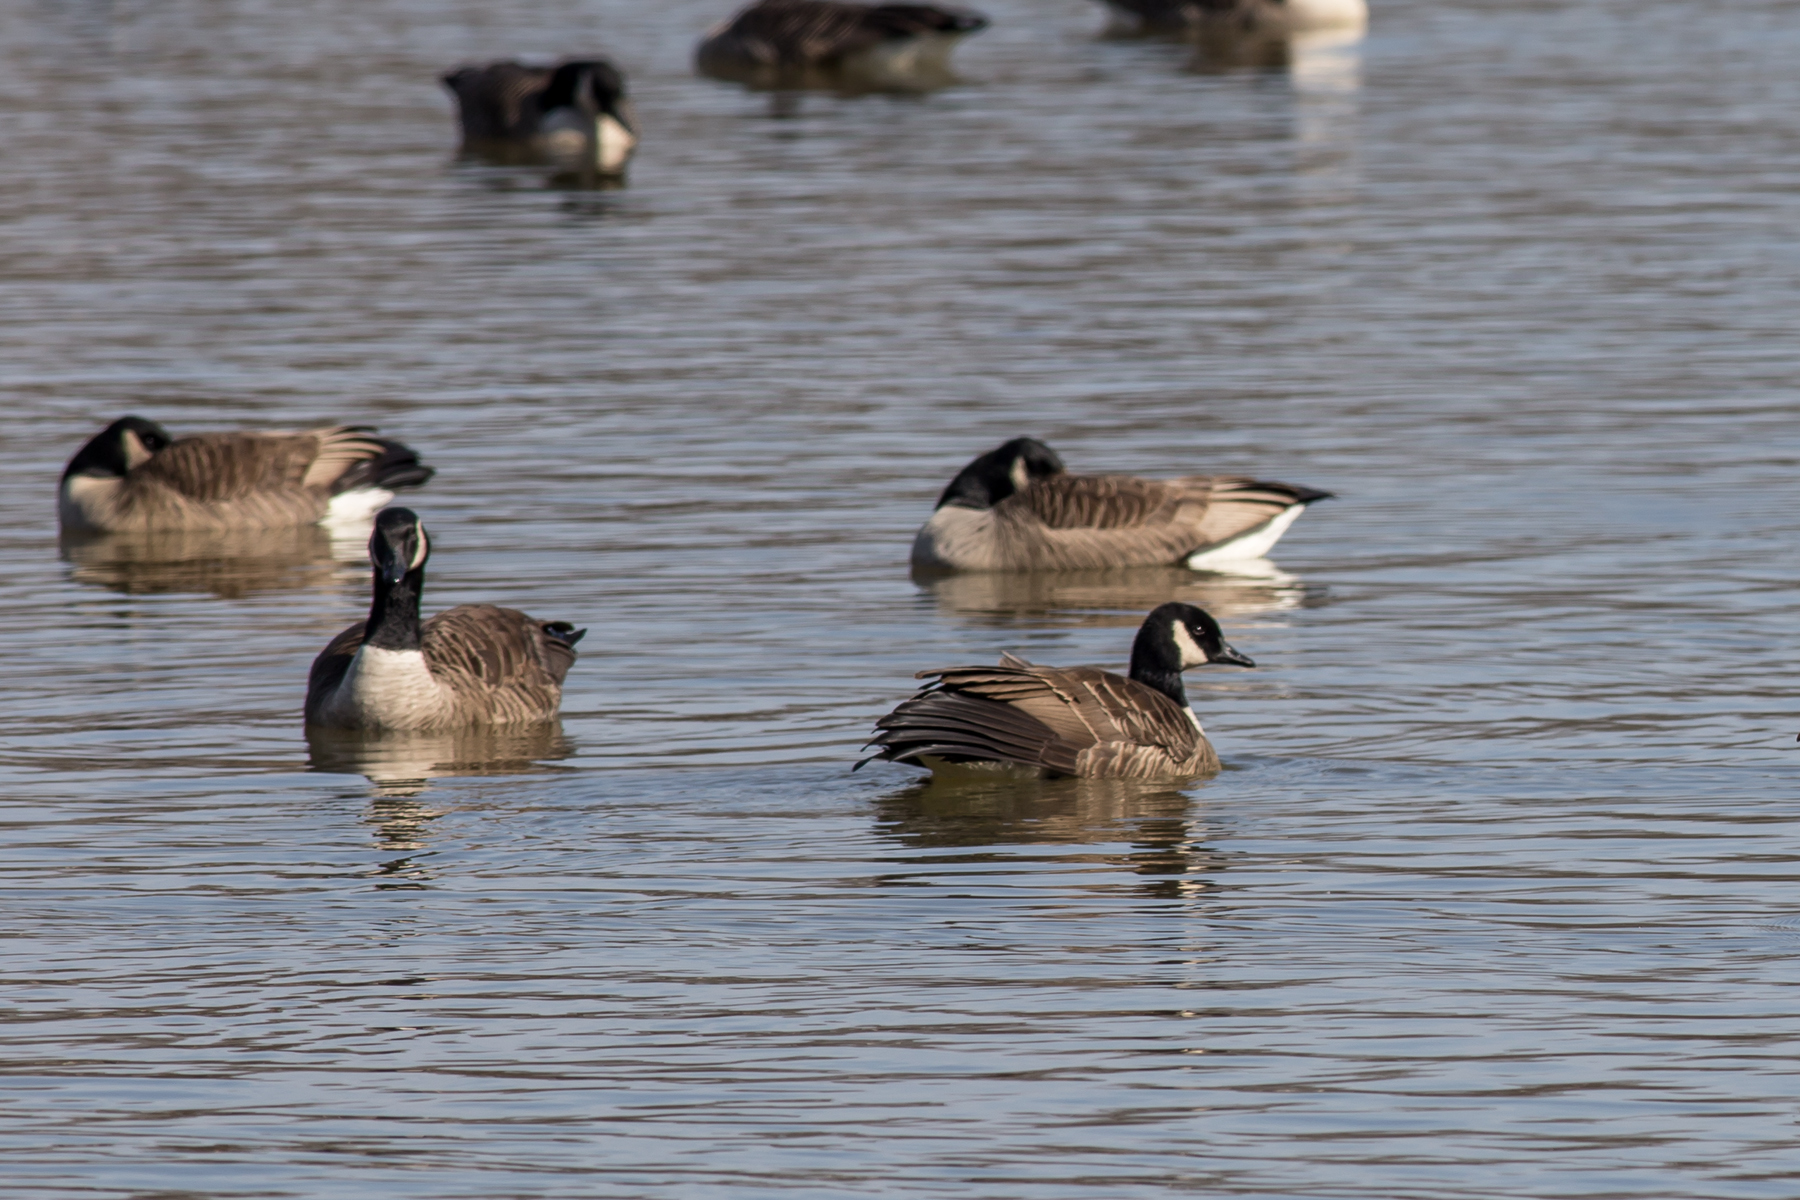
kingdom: Animalia
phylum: Chordata
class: Aves
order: Anseriformes
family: Anatidae
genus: Branta
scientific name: Branta canadensis
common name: Canada goose
